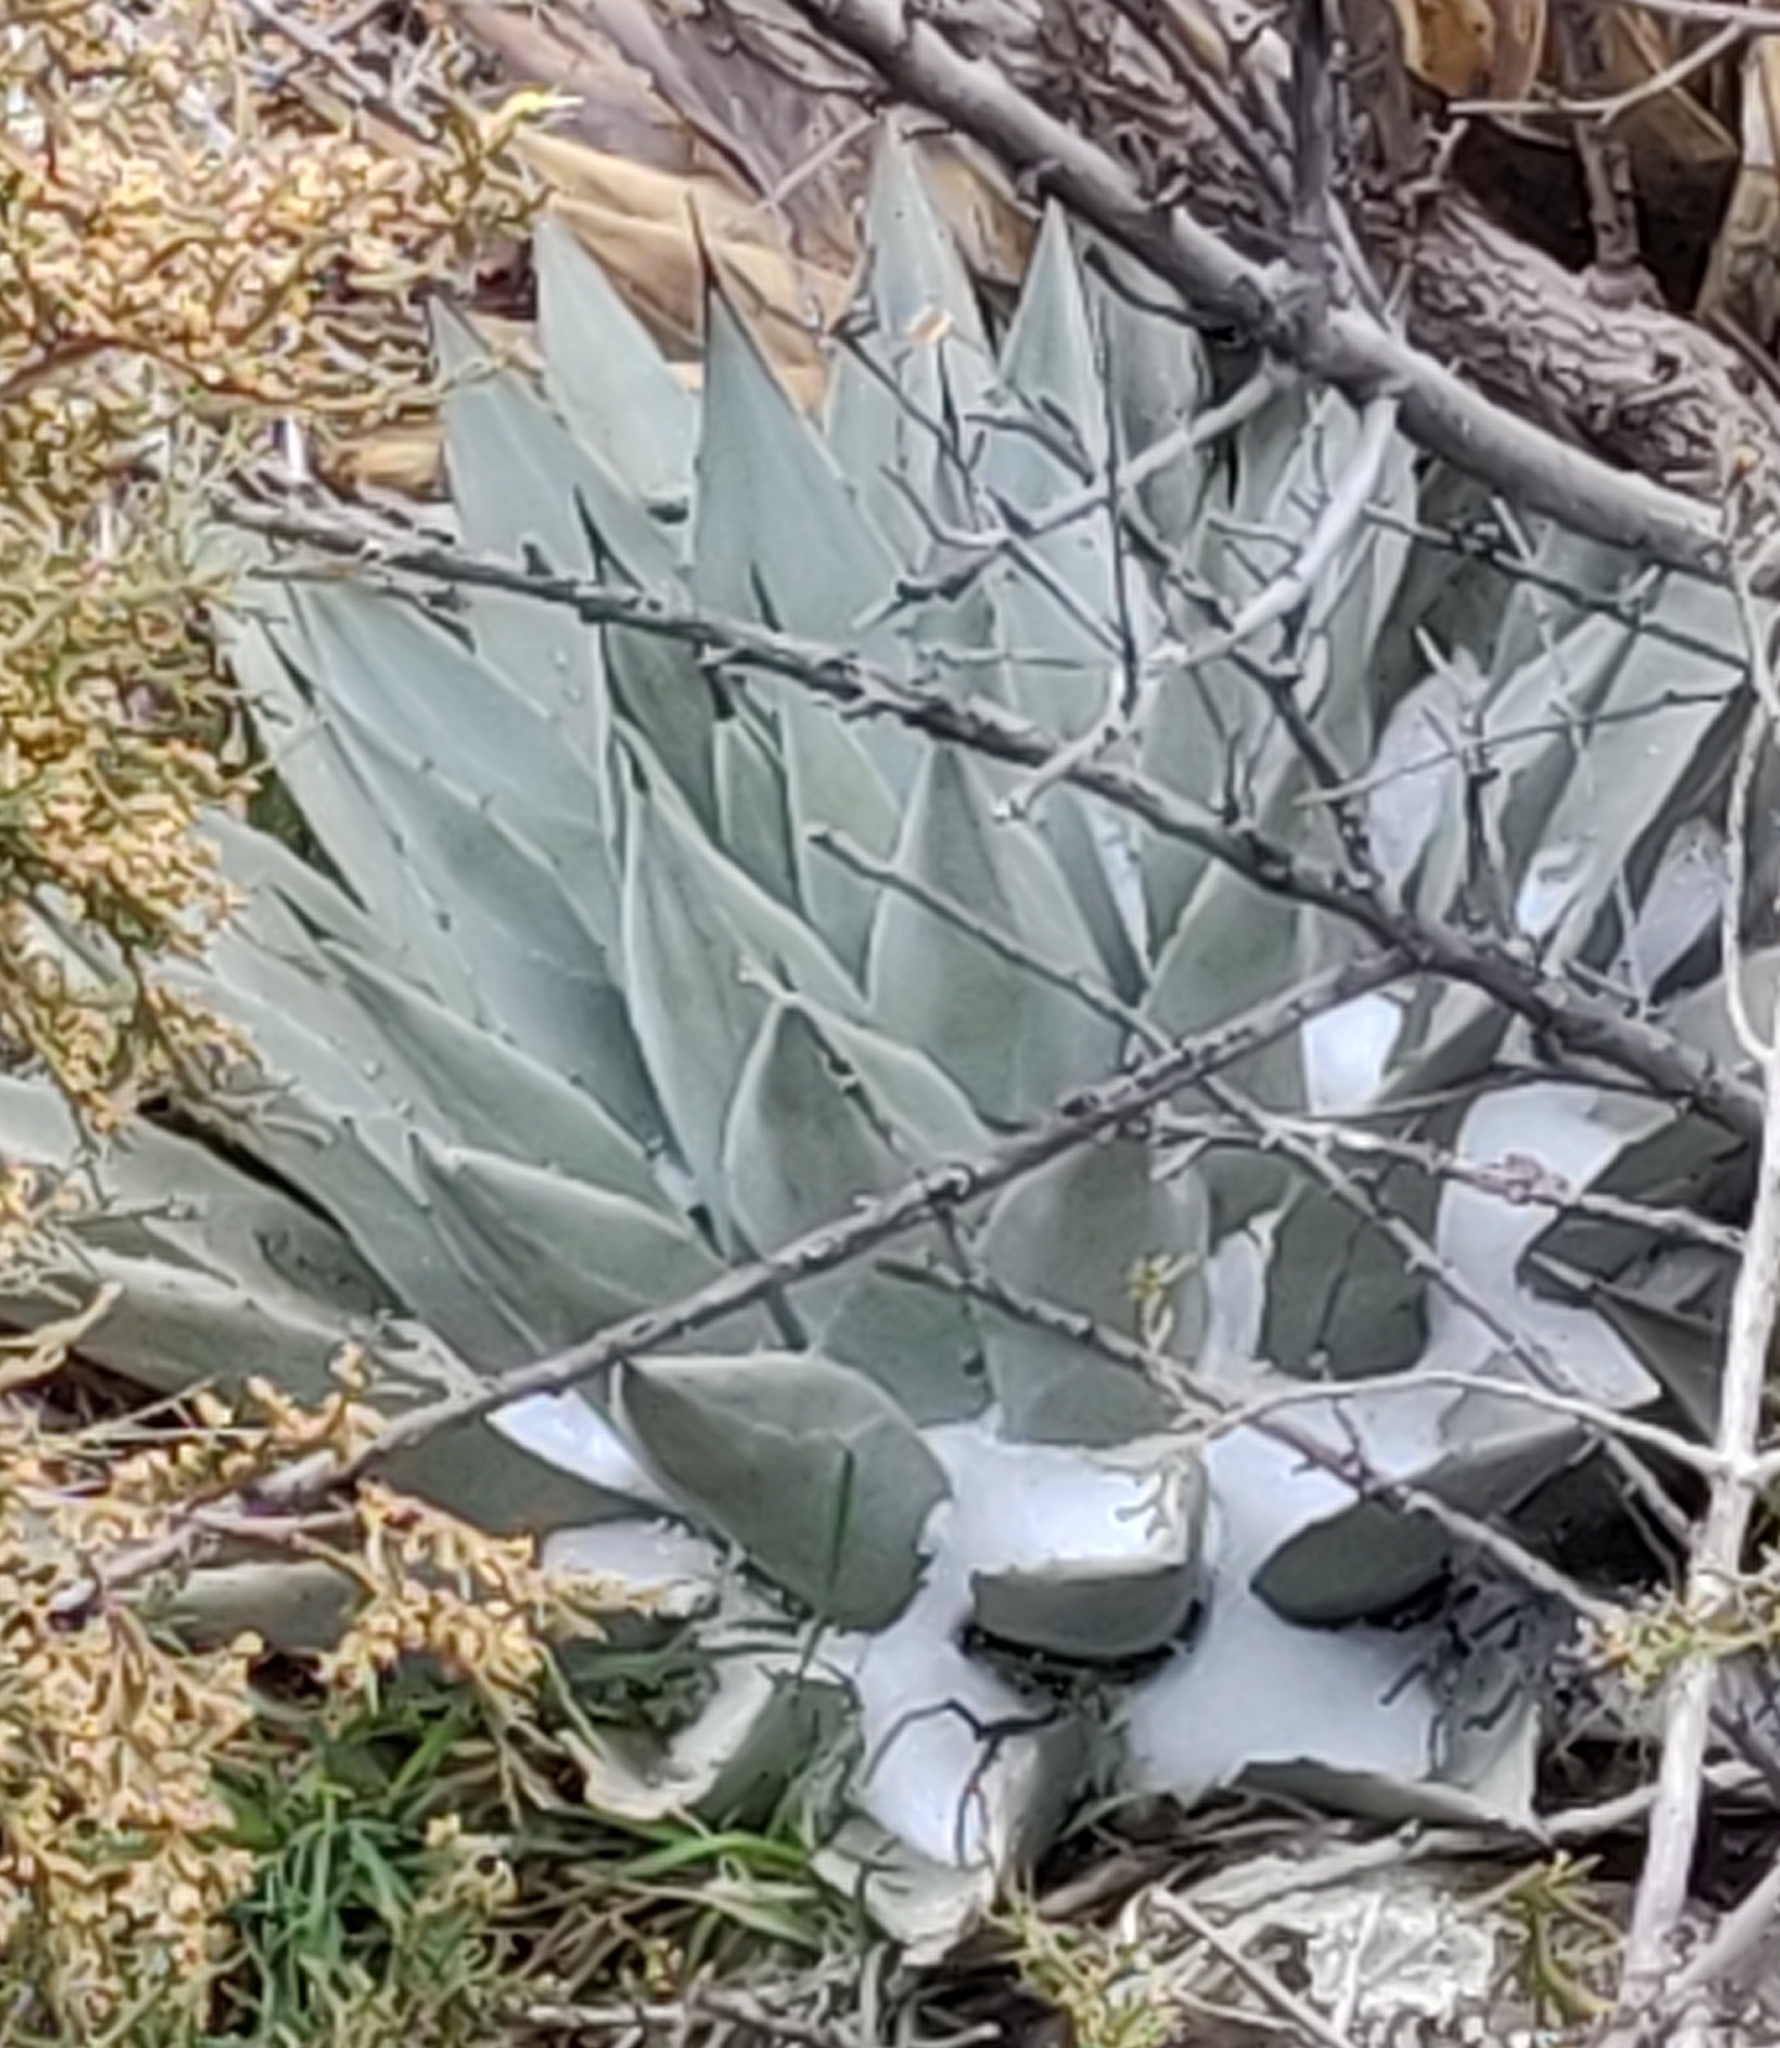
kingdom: Plantae
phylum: Tracheophyta
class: Liliopsida
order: Asparagales
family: Asparagaceae
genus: Agave
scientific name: Agave parryi
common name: Parry's agave
